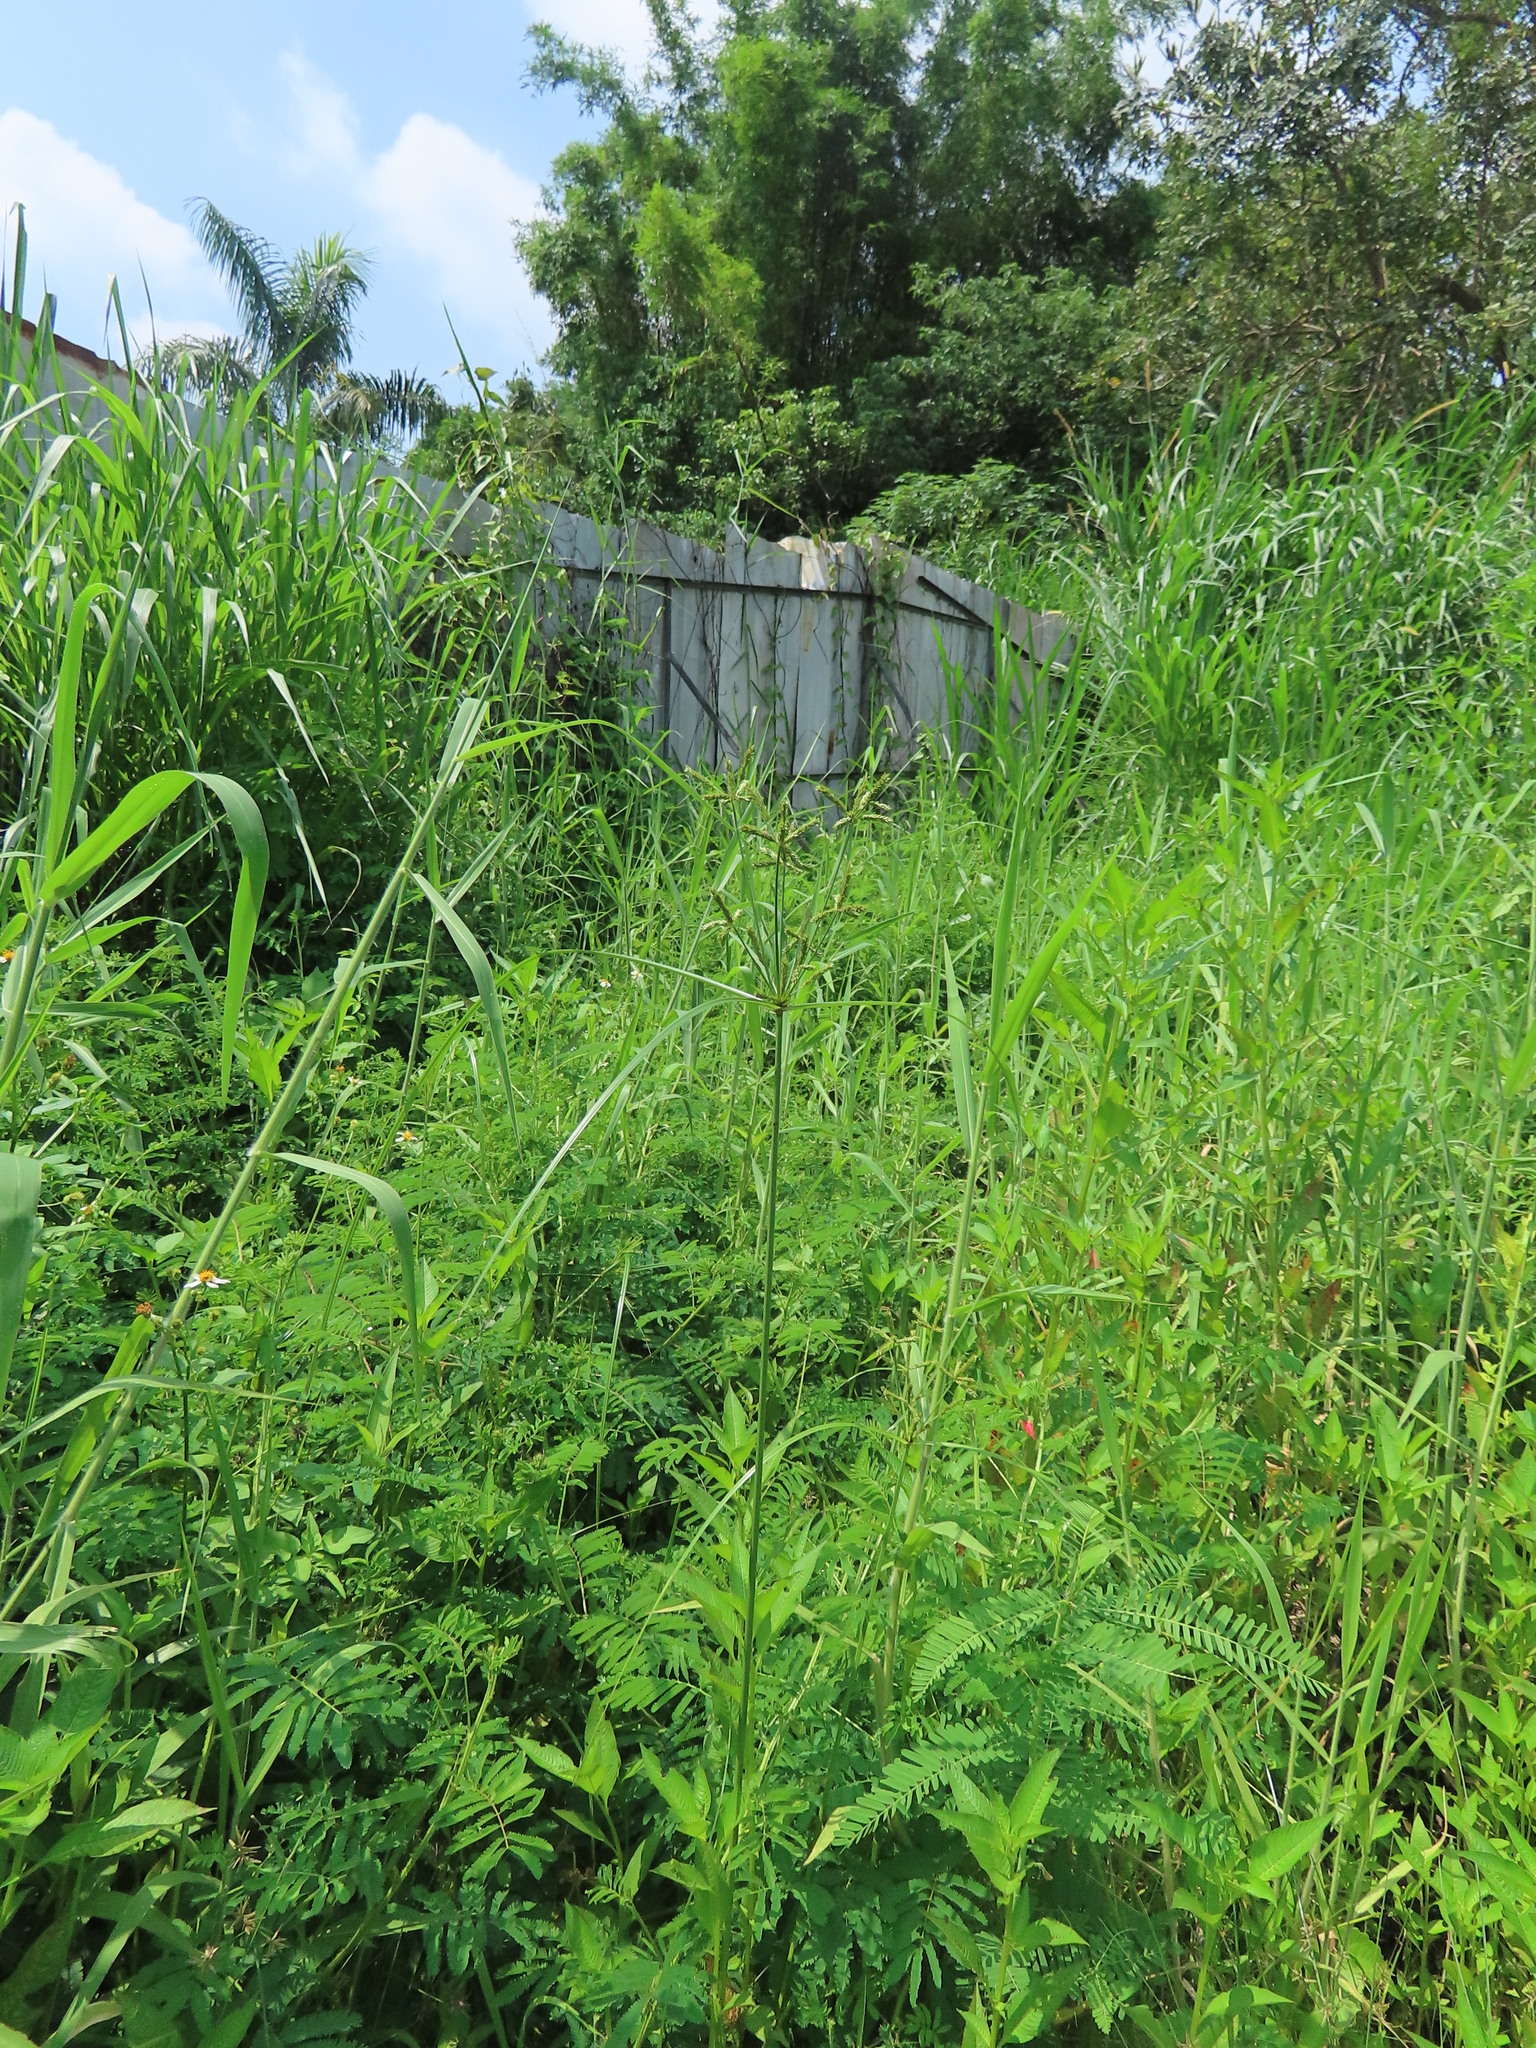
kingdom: Plantae
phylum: Tracheophyta
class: Liliopsida
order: Poales
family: Cyperaceae
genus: Cyperus
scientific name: Cyperus imbricatus
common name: Shingle flatsedge
